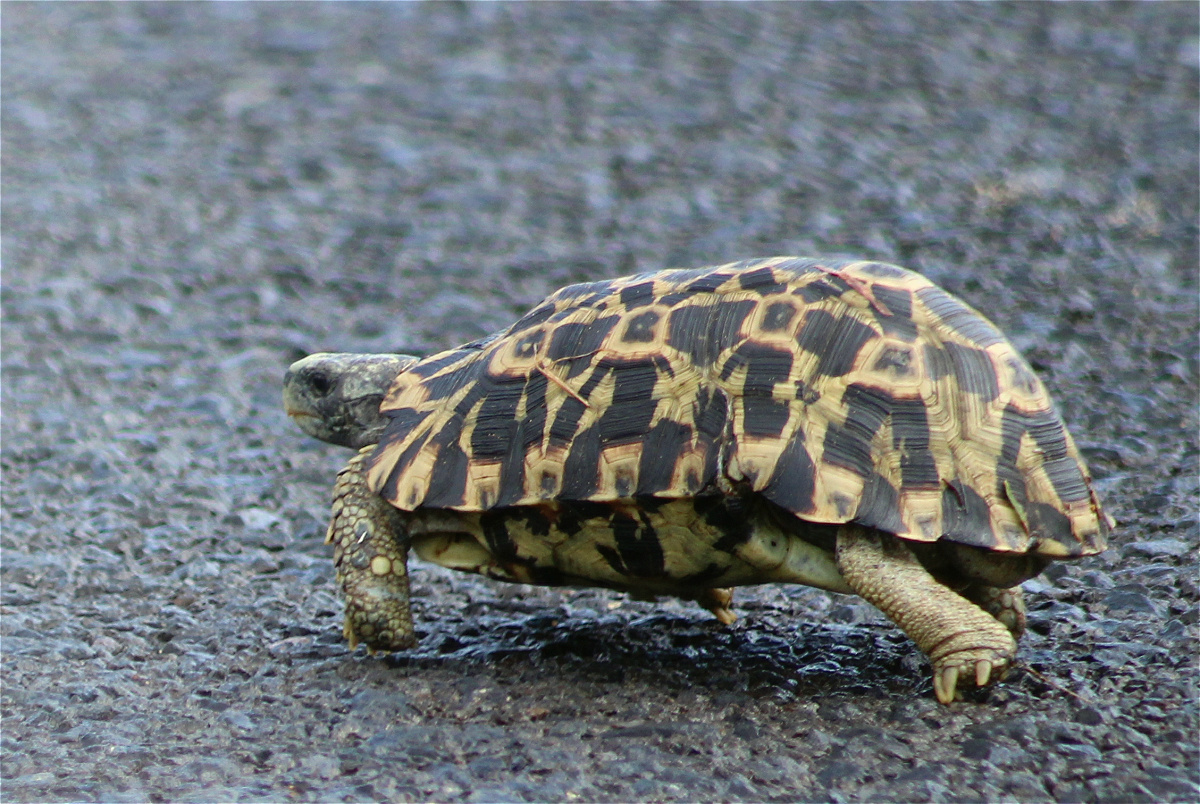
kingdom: Animalia
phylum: Chordata
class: Testudines
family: Testudinidae
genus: Kinixys
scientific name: Kinixys zombensis
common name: Southeastern hinge-back tortoise
